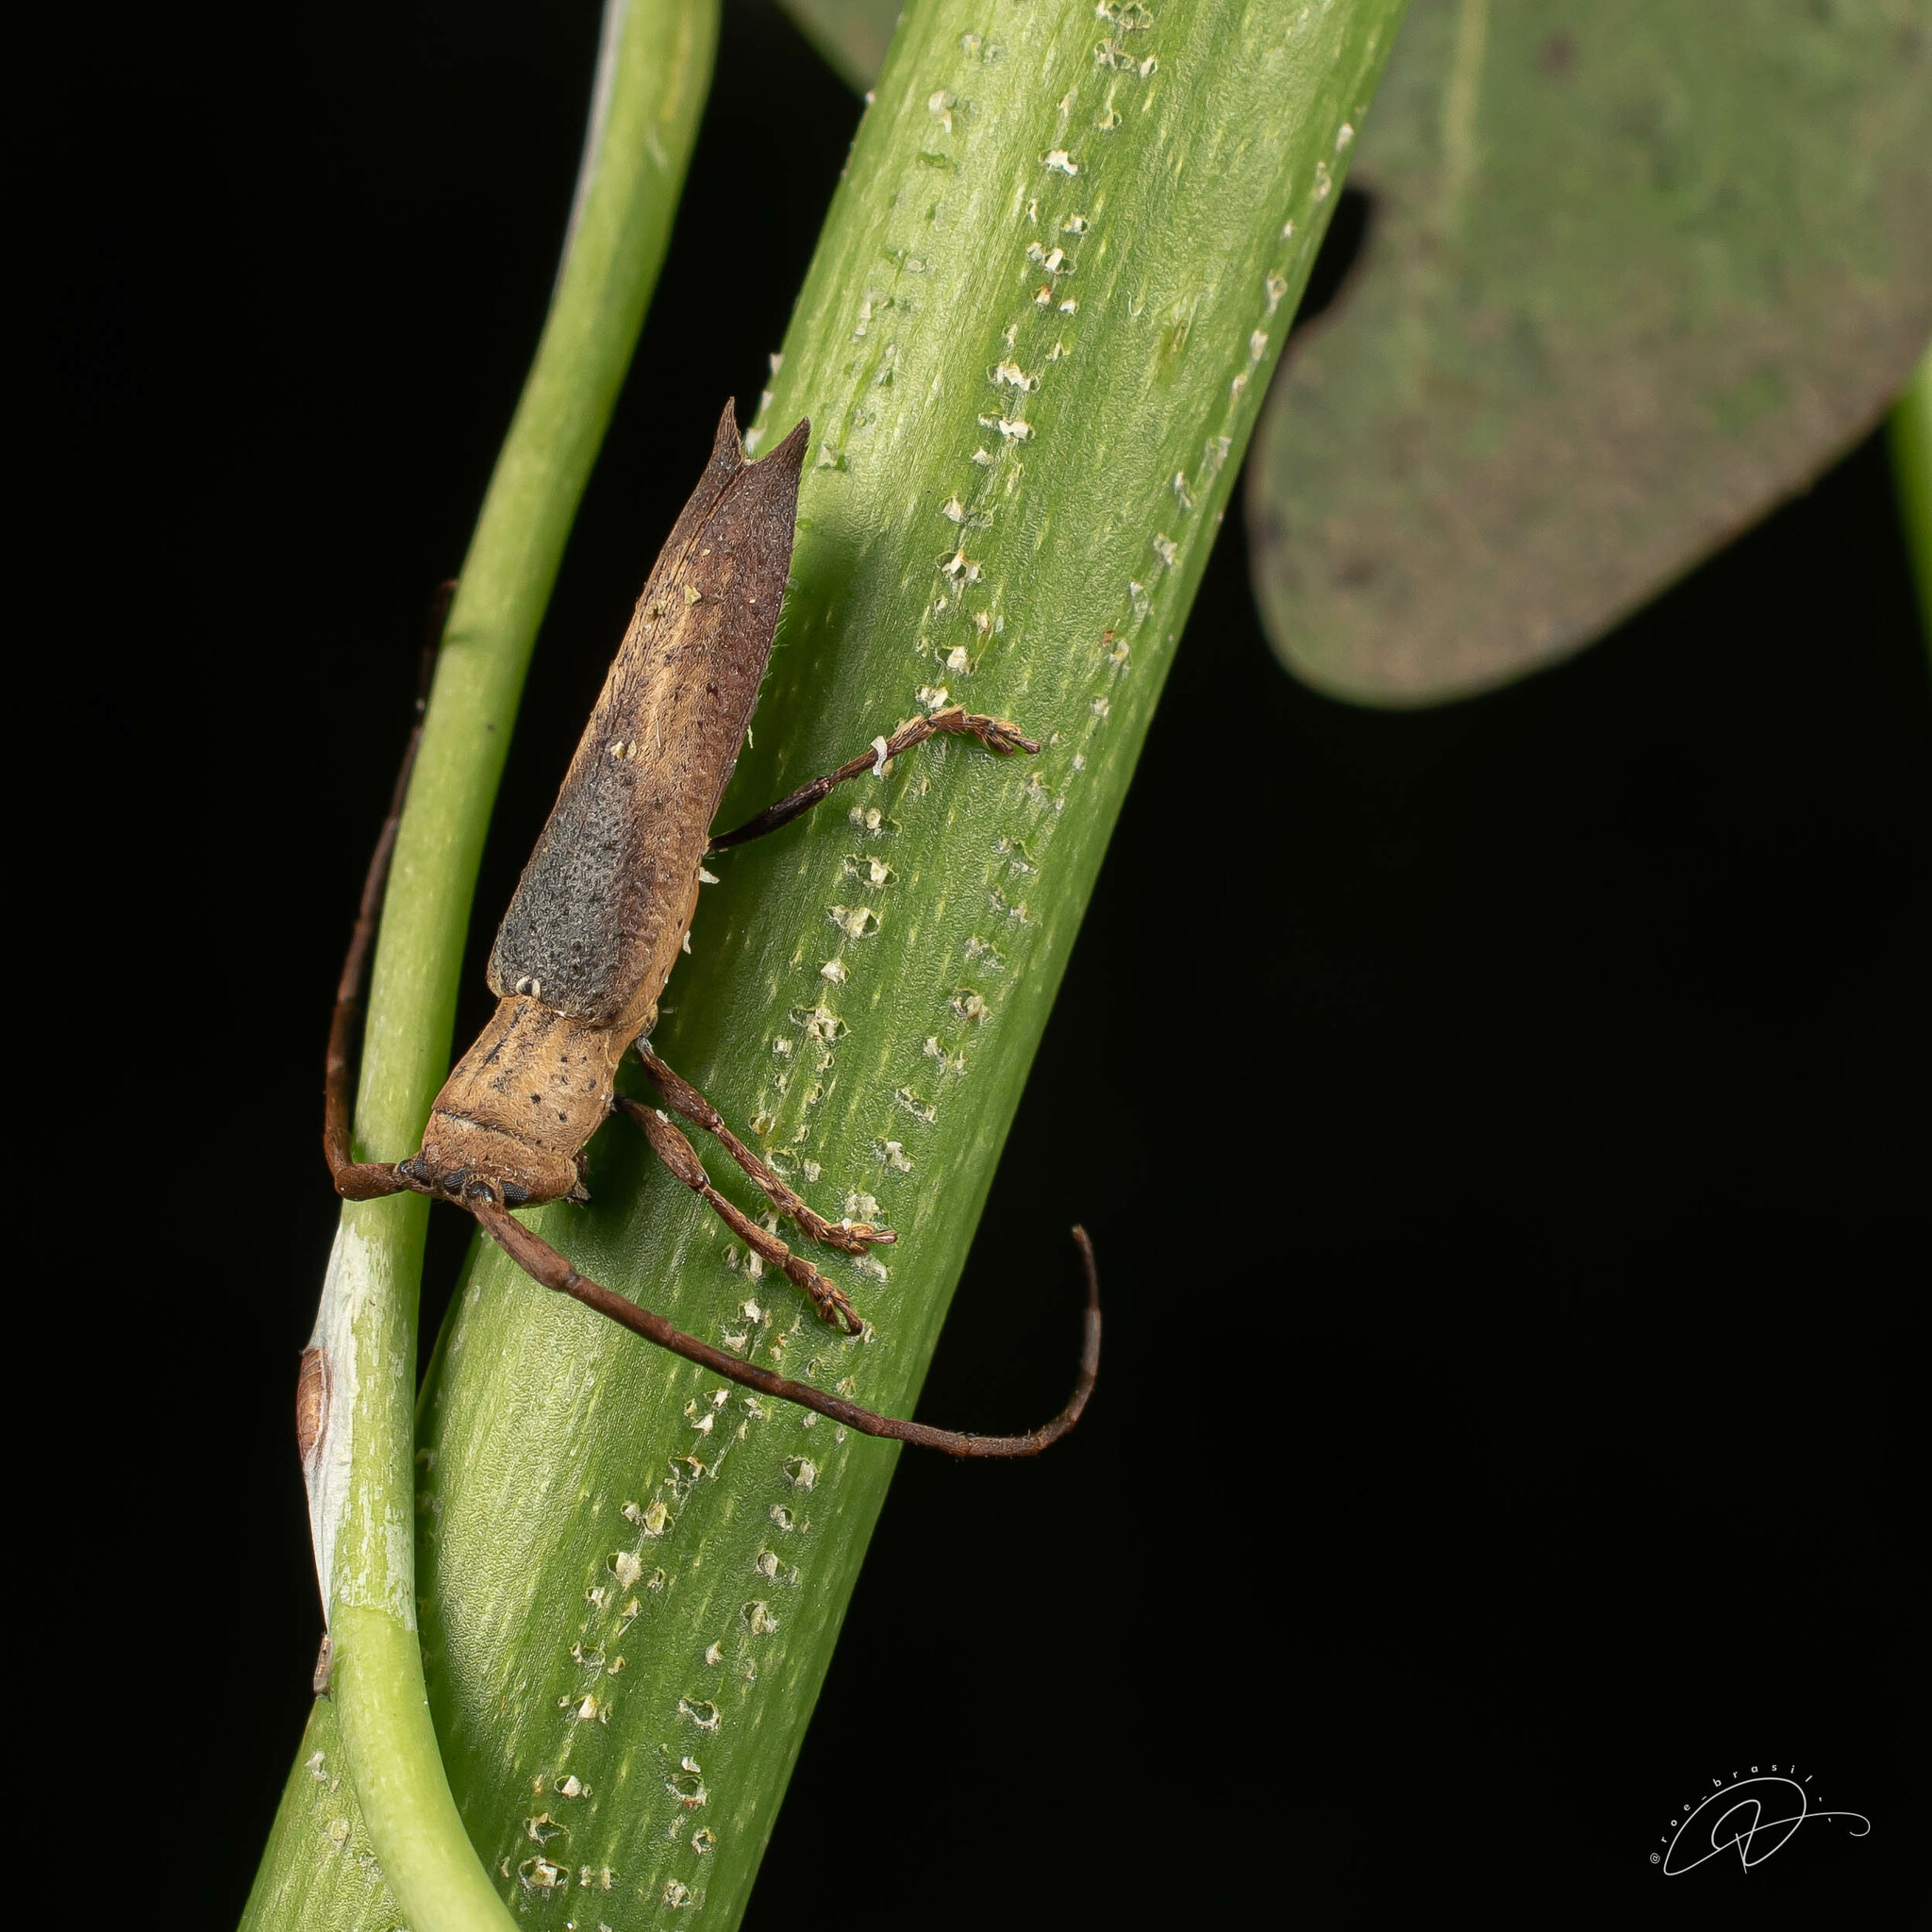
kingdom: Animalia
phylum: Arthropoda
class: Insecta
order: Coleoptera
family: Cerambycidae
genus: Pseudepectasis
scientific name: Pseudepectasis bispinosa
